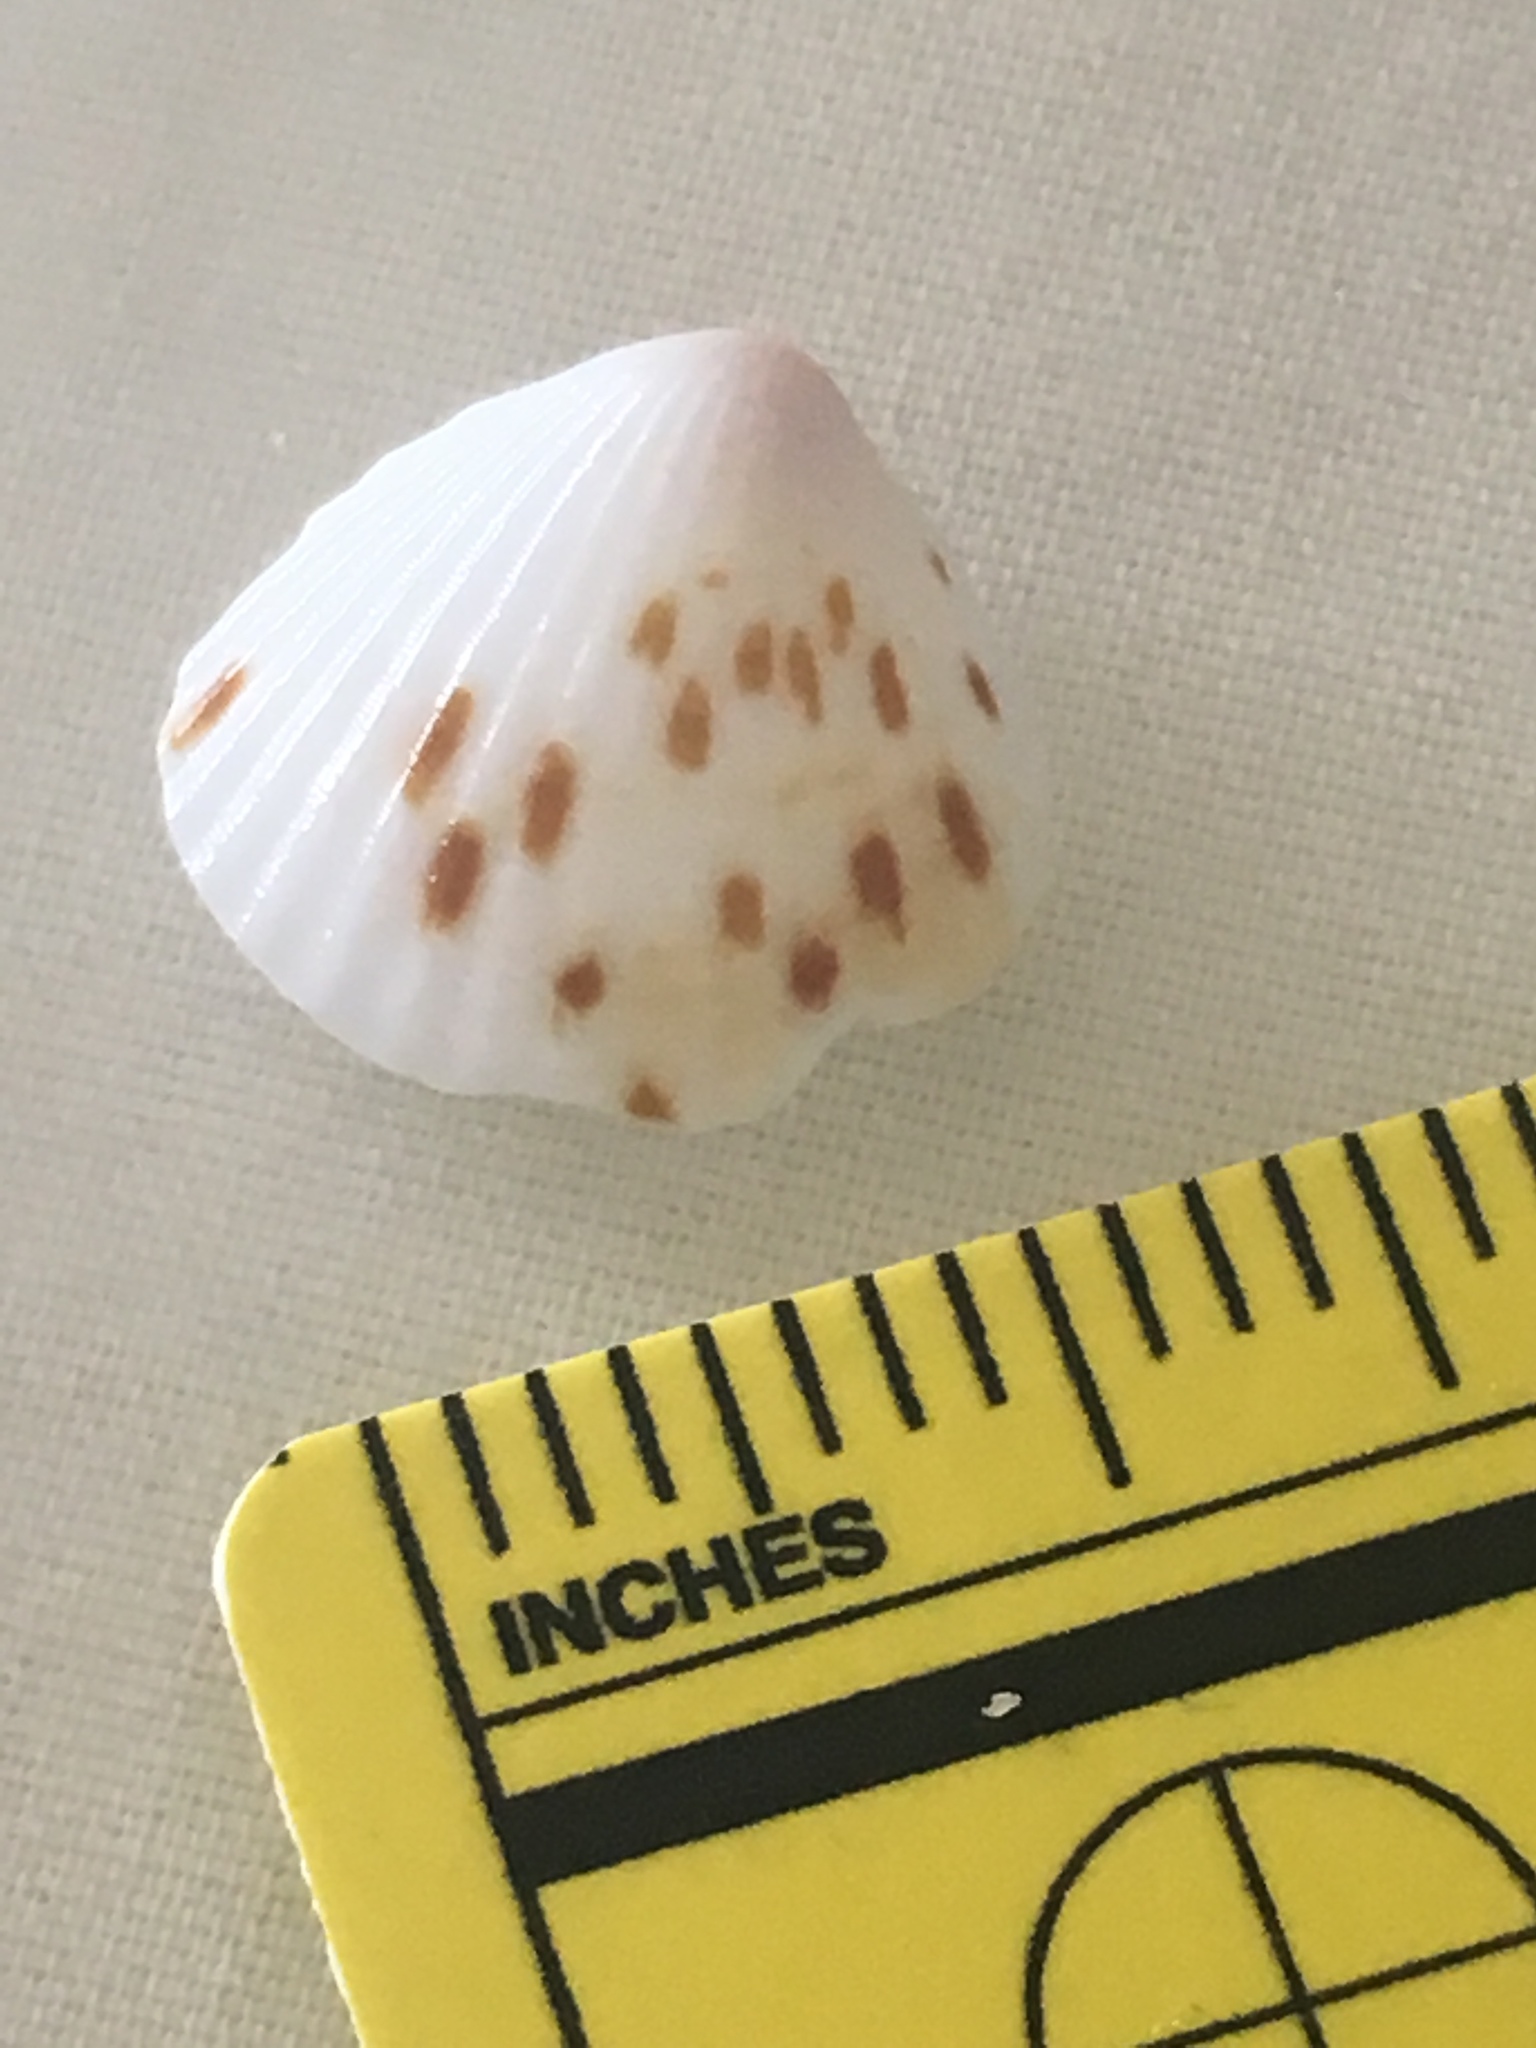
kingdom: Animalia
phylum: Mollusca
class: Bivalvia
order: Arcida
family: Glycymerididae
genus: Tucetona
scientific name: Tucetona pectinata
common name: Comb bittersweet
